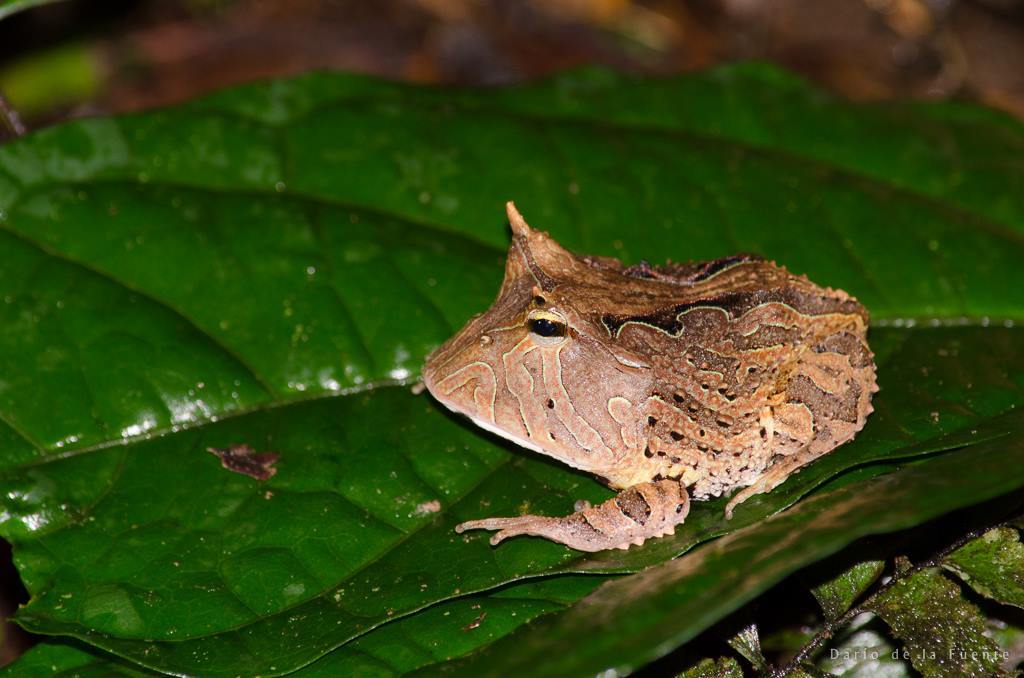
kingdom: Animalia
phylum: Chordata
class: Amphibia
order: Anura
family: Ceratophryidae
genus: Ceratophrys
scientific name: Ceratophrys cornuta
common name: Amazonian horned frog
